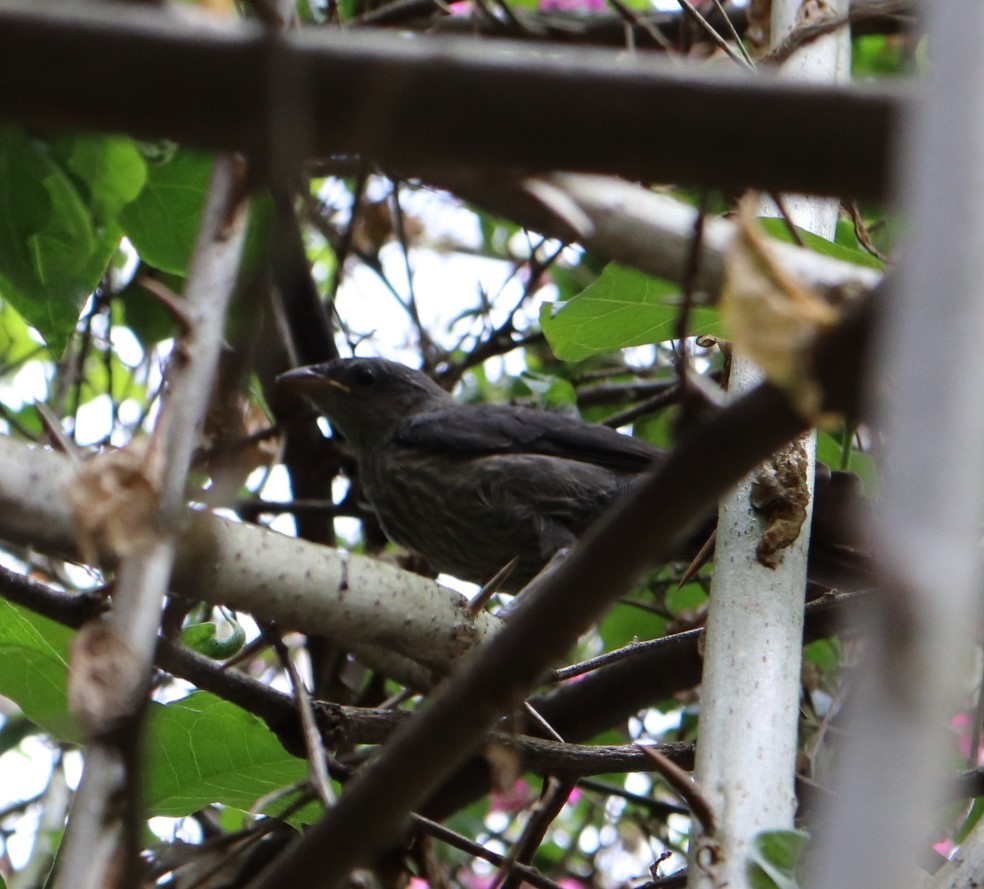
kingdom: Animalia
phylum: Chordata
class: Aves
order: Passeriformes
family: Icteridae
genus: Molothrus
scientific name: Molothrus bonariensis
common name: Shiny cowbird
